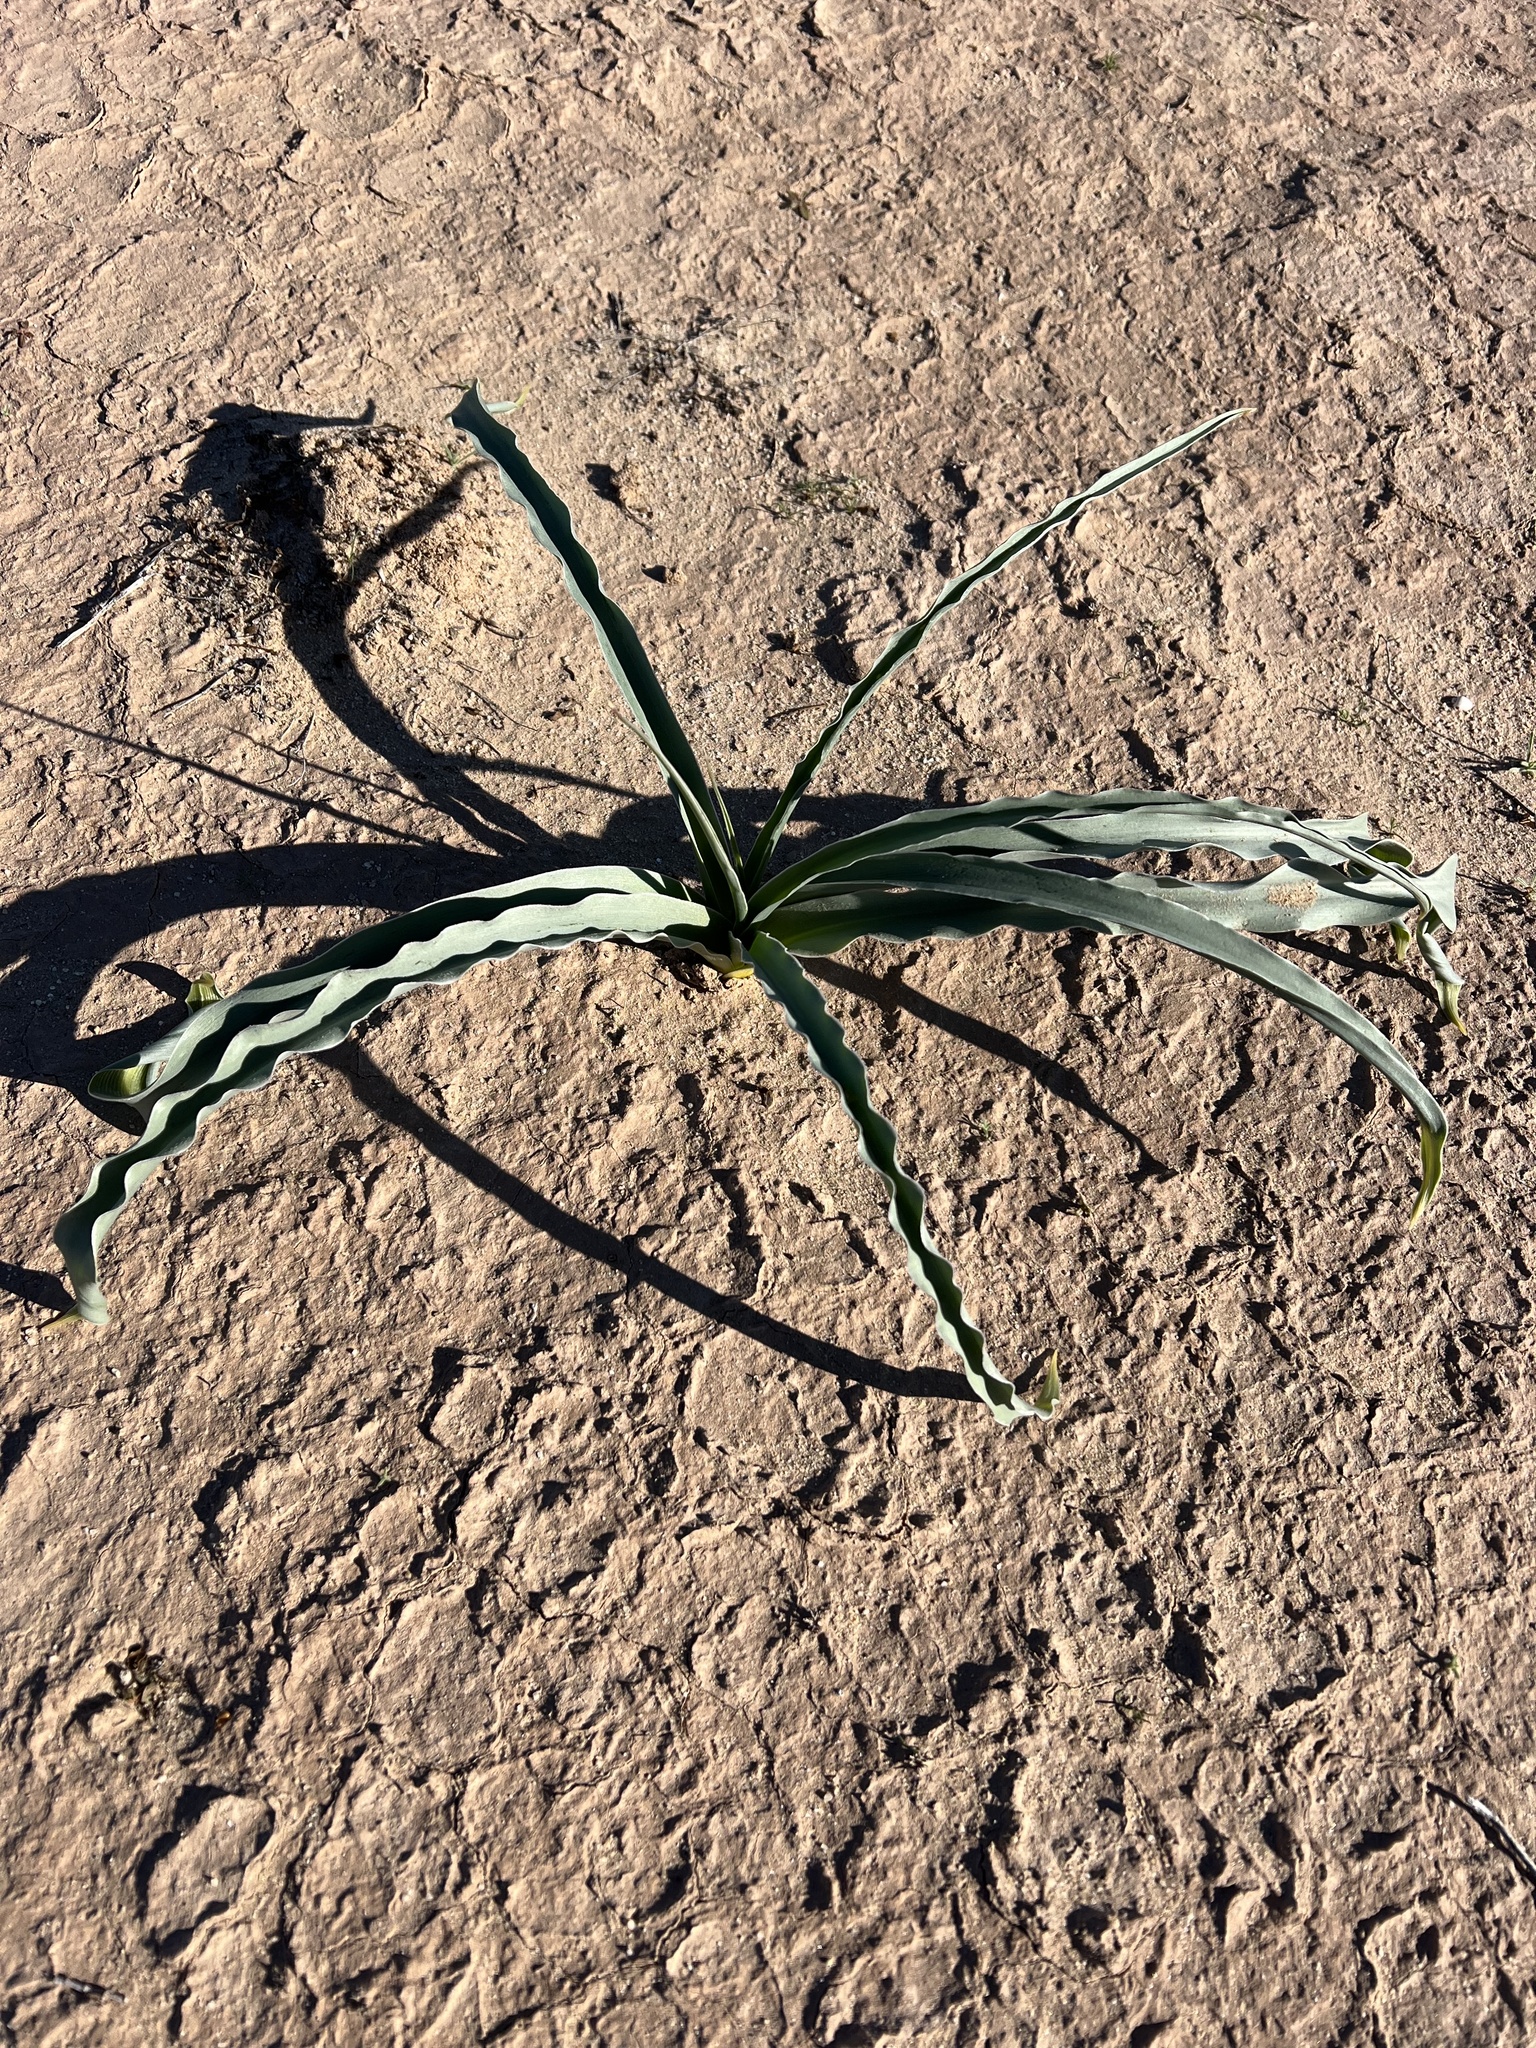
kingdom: Plantae
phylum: Tracheophyta
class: Liliopsida
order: Asparagales
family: Asparagaceae
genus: Hesperocallis
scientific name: Hesperocallis undulata
